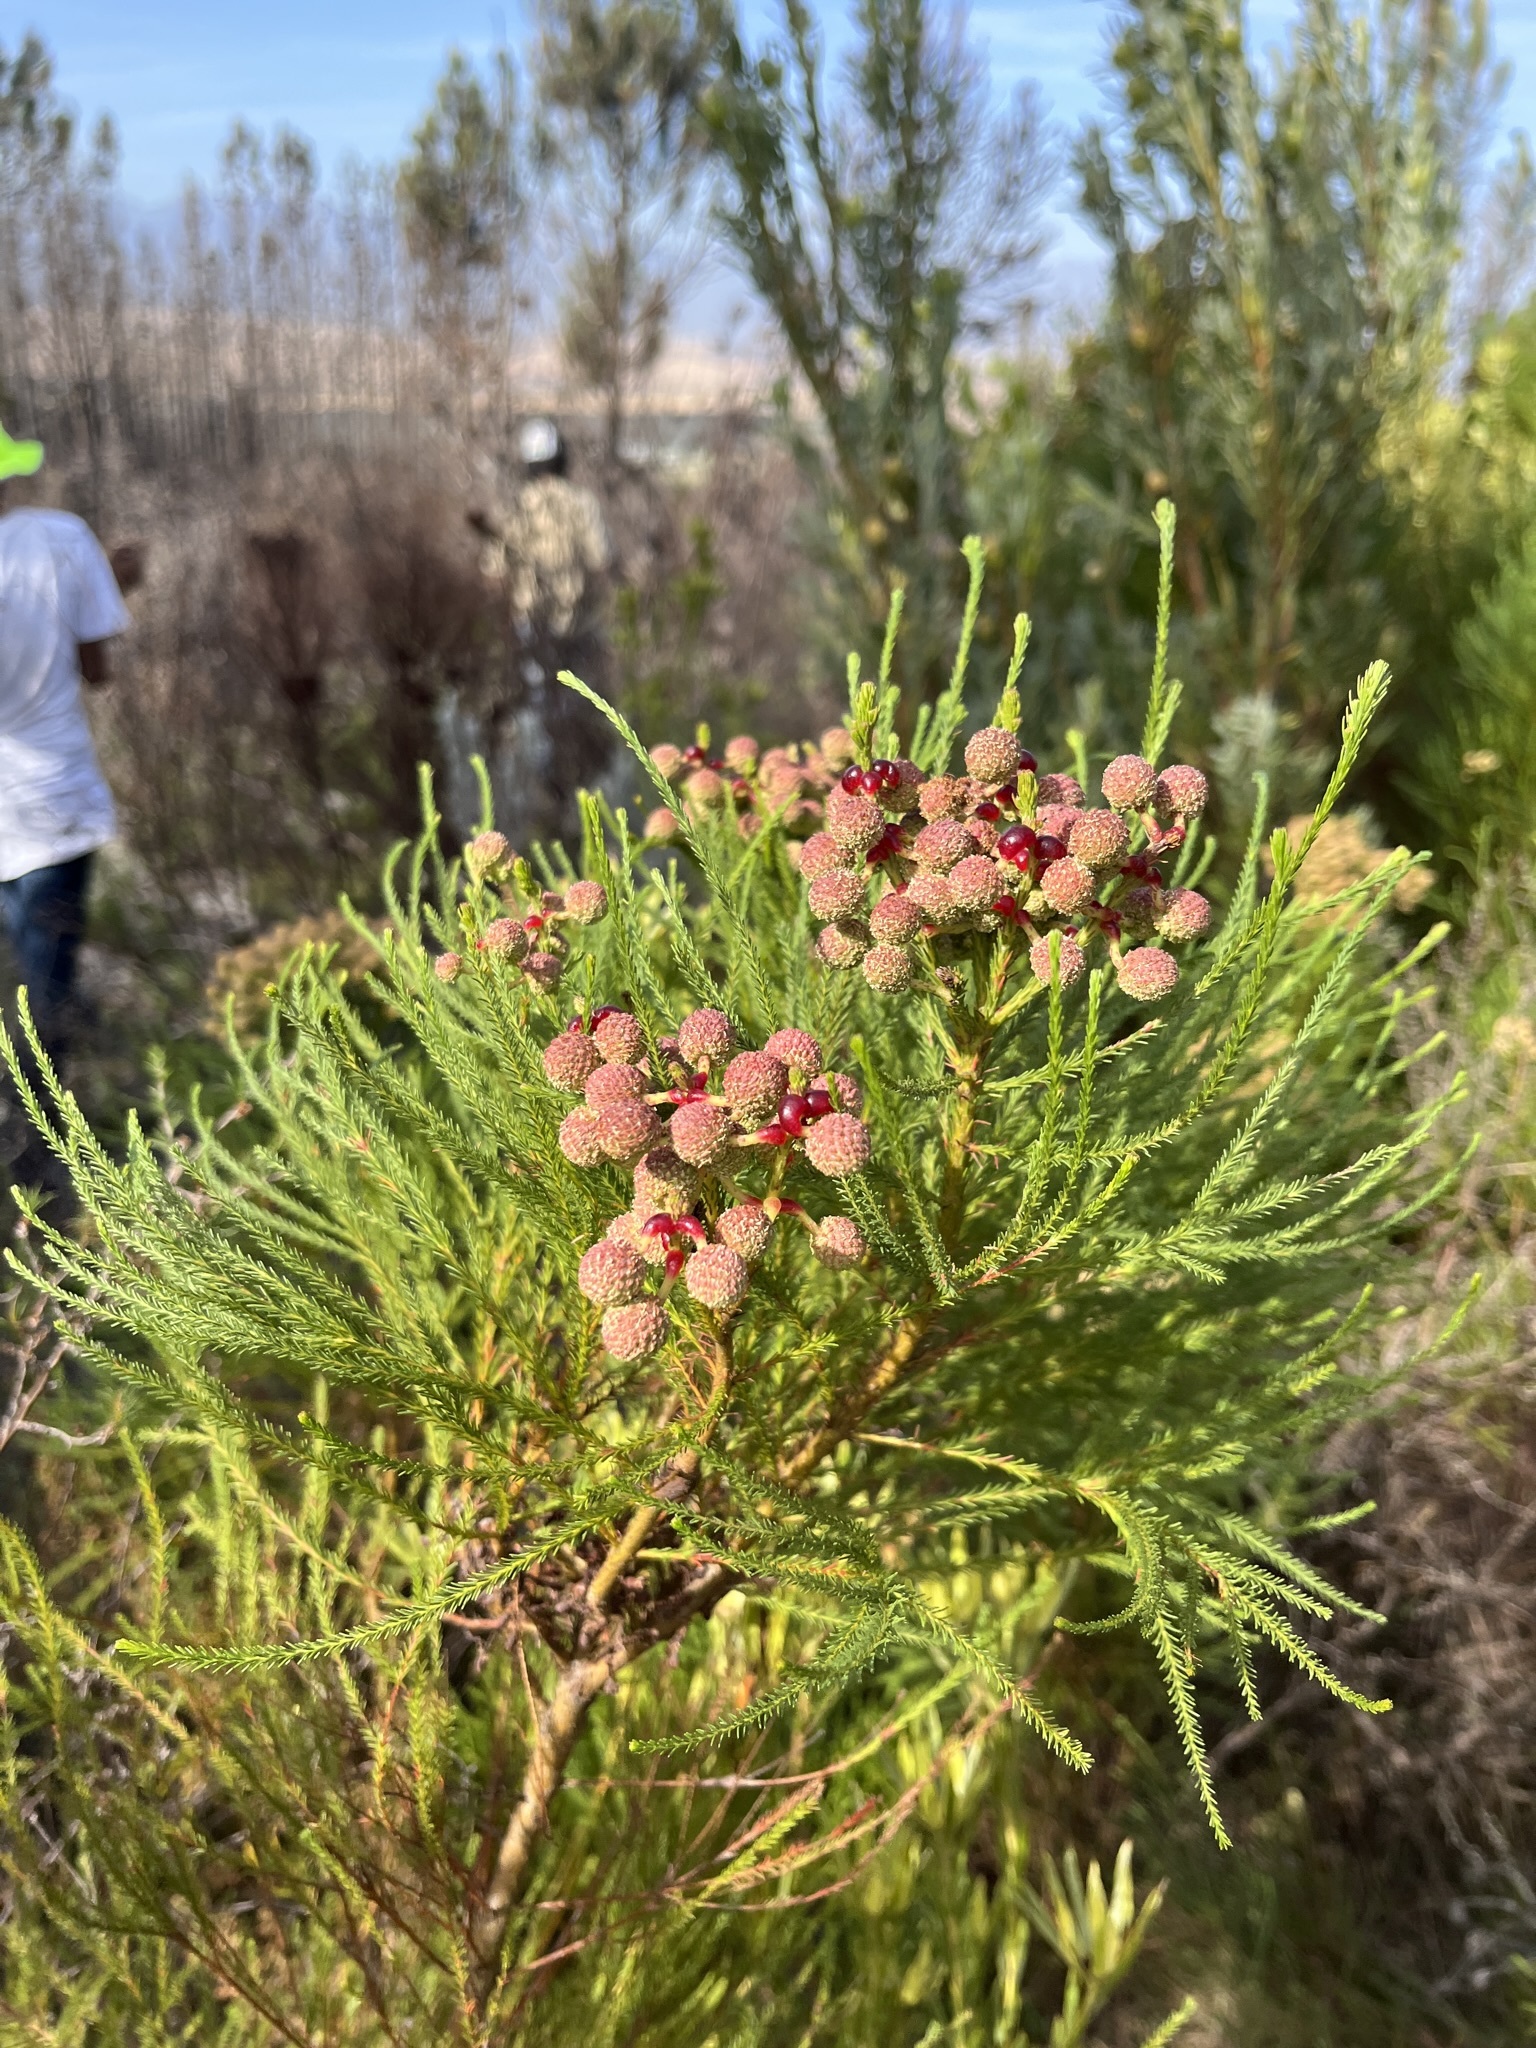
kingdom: Plantae
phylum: Tracheophyta
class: Magnoliopsida
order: Bruniales
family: Bruniaceae
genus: Berzelia
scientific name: Berzelia lanuginosa
